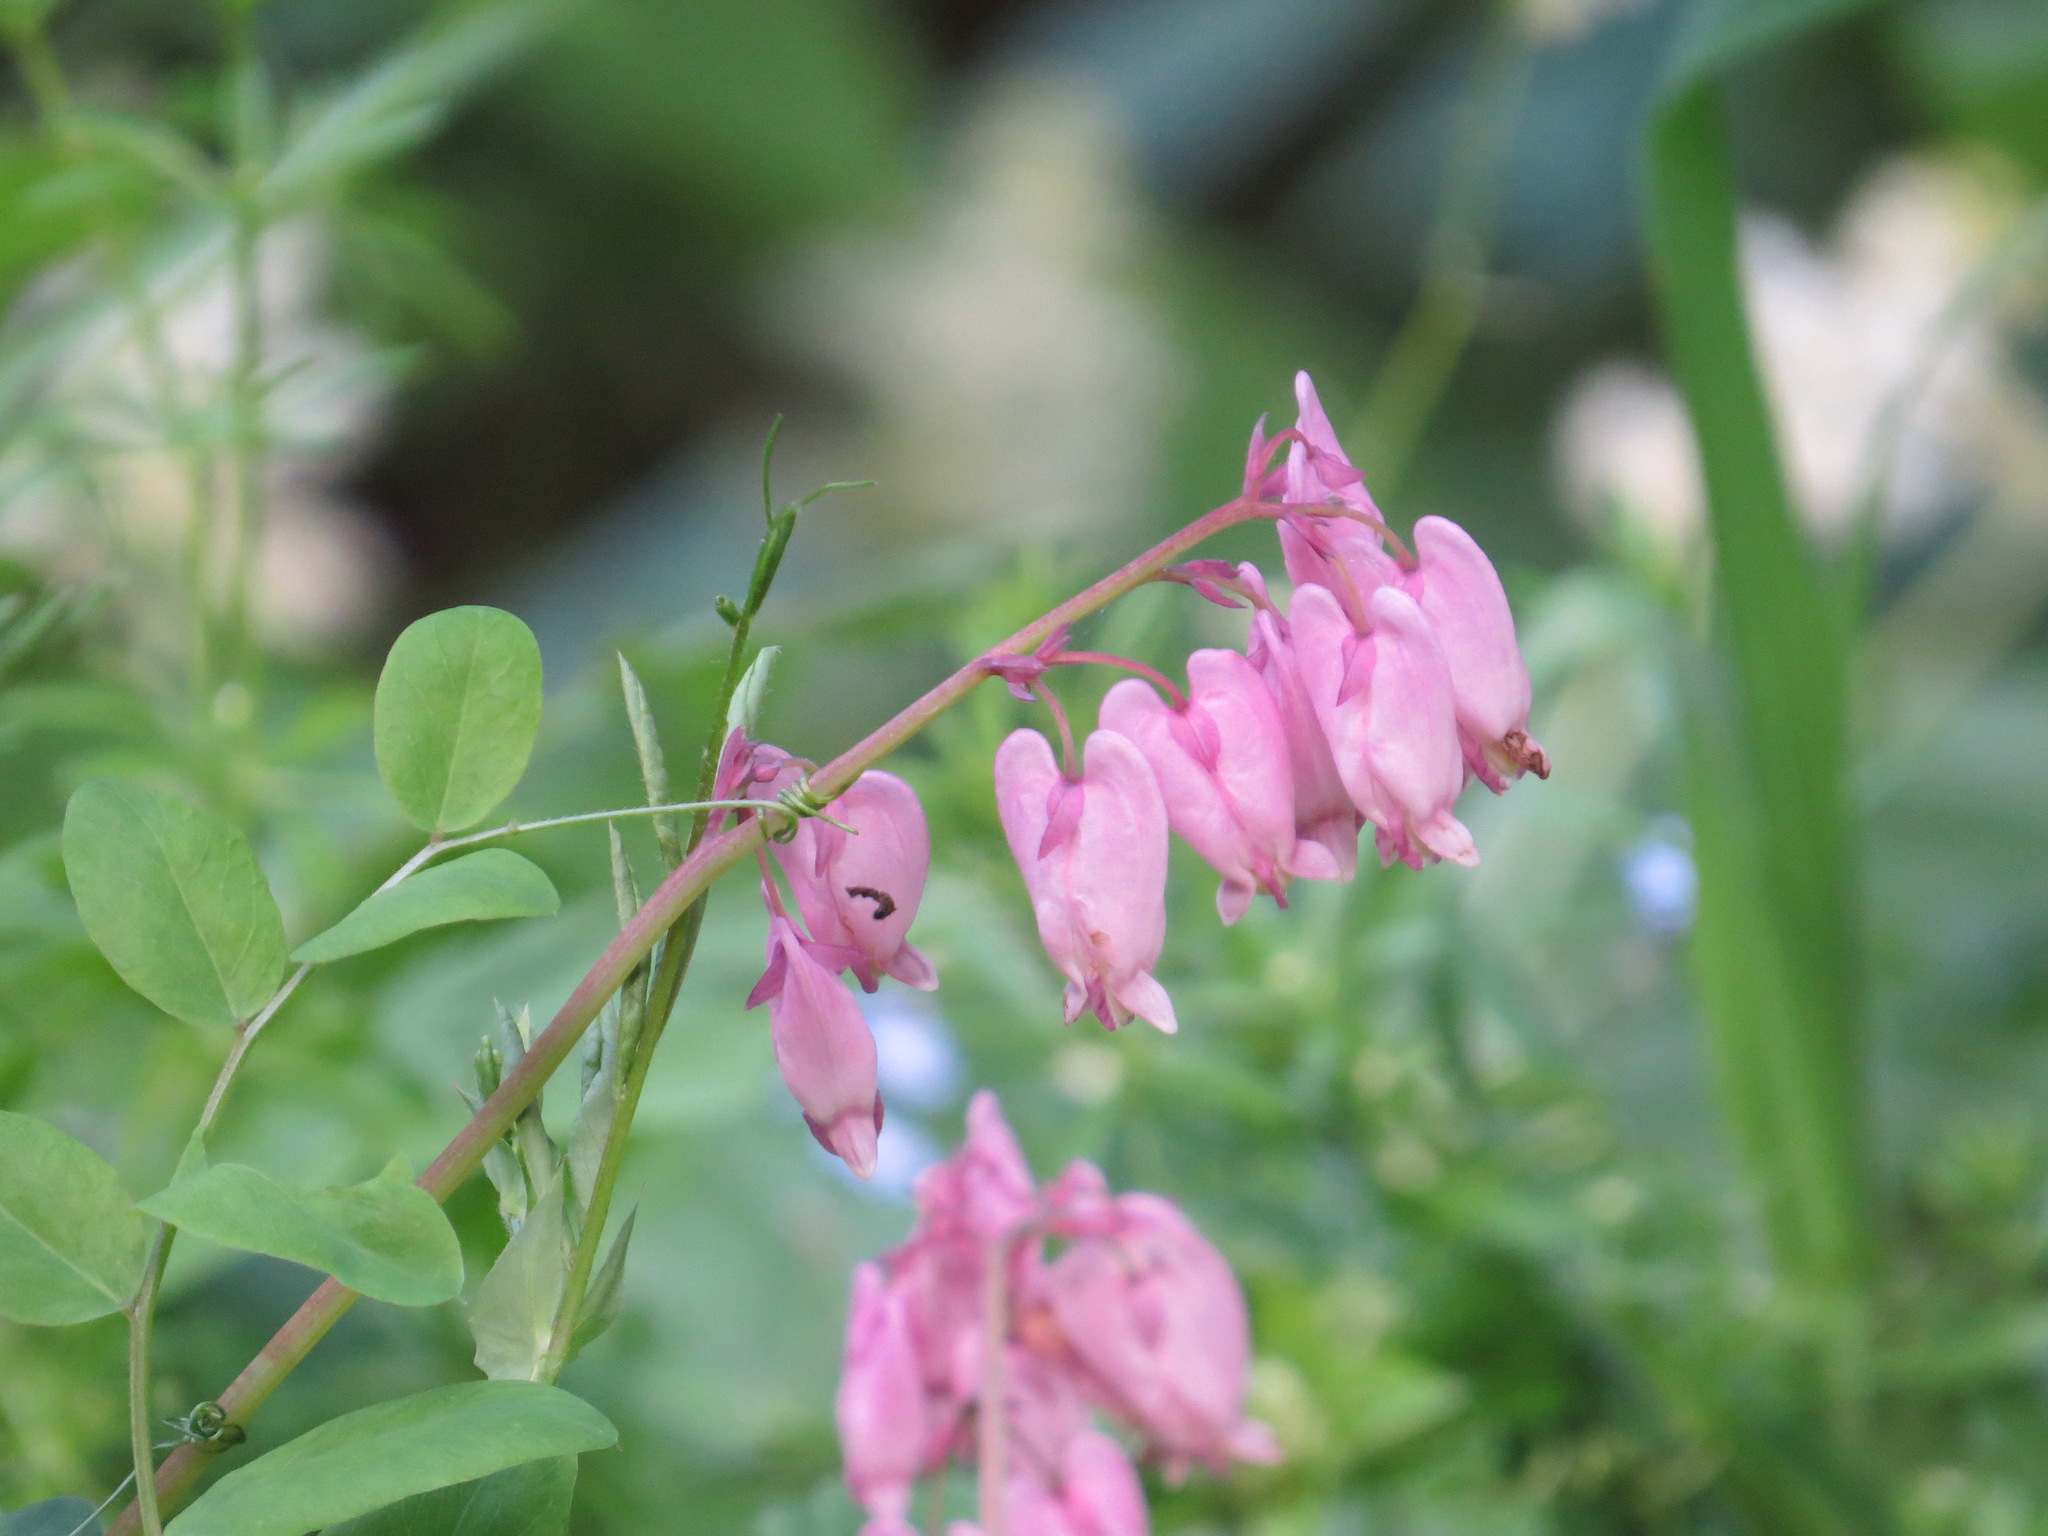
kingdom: Plantae
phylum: Tracheophyta
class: Magnoliopsida
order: Ranunculales
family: Papaveraceae
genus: Dicentra
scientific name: Dicentra formosa
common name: Bleeding-heart
